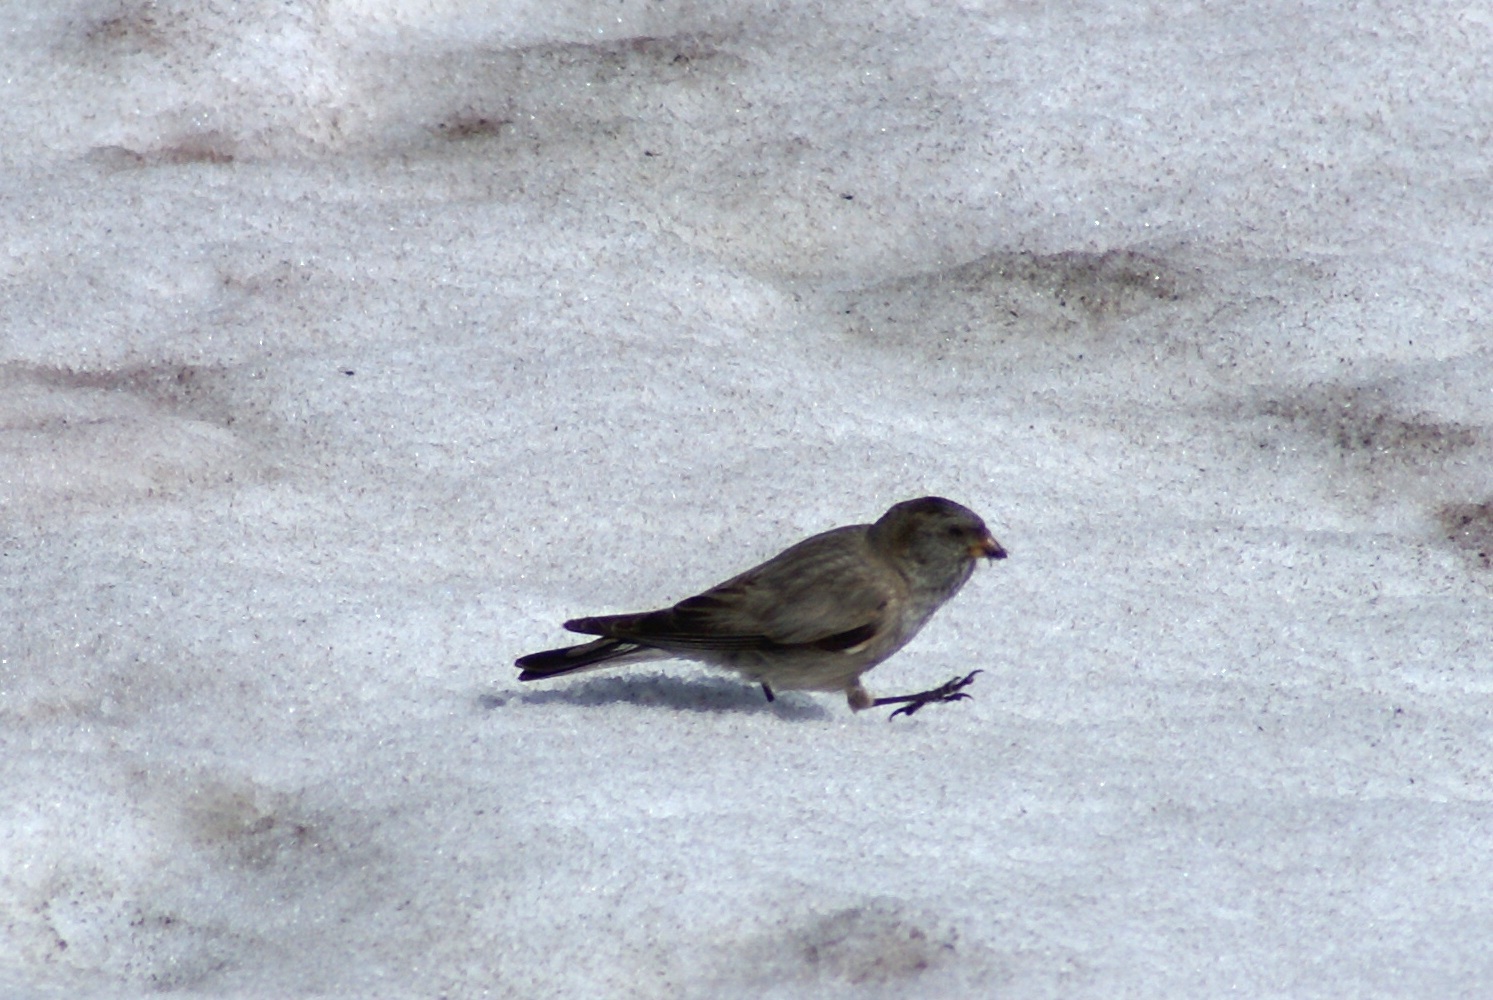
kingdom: Animalia
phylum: Chordata
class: Aves
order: Passeriformes
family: Fringillidae
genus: Leucosticte
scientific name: Leucosticte brandti
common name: Brandt's mountain finch
